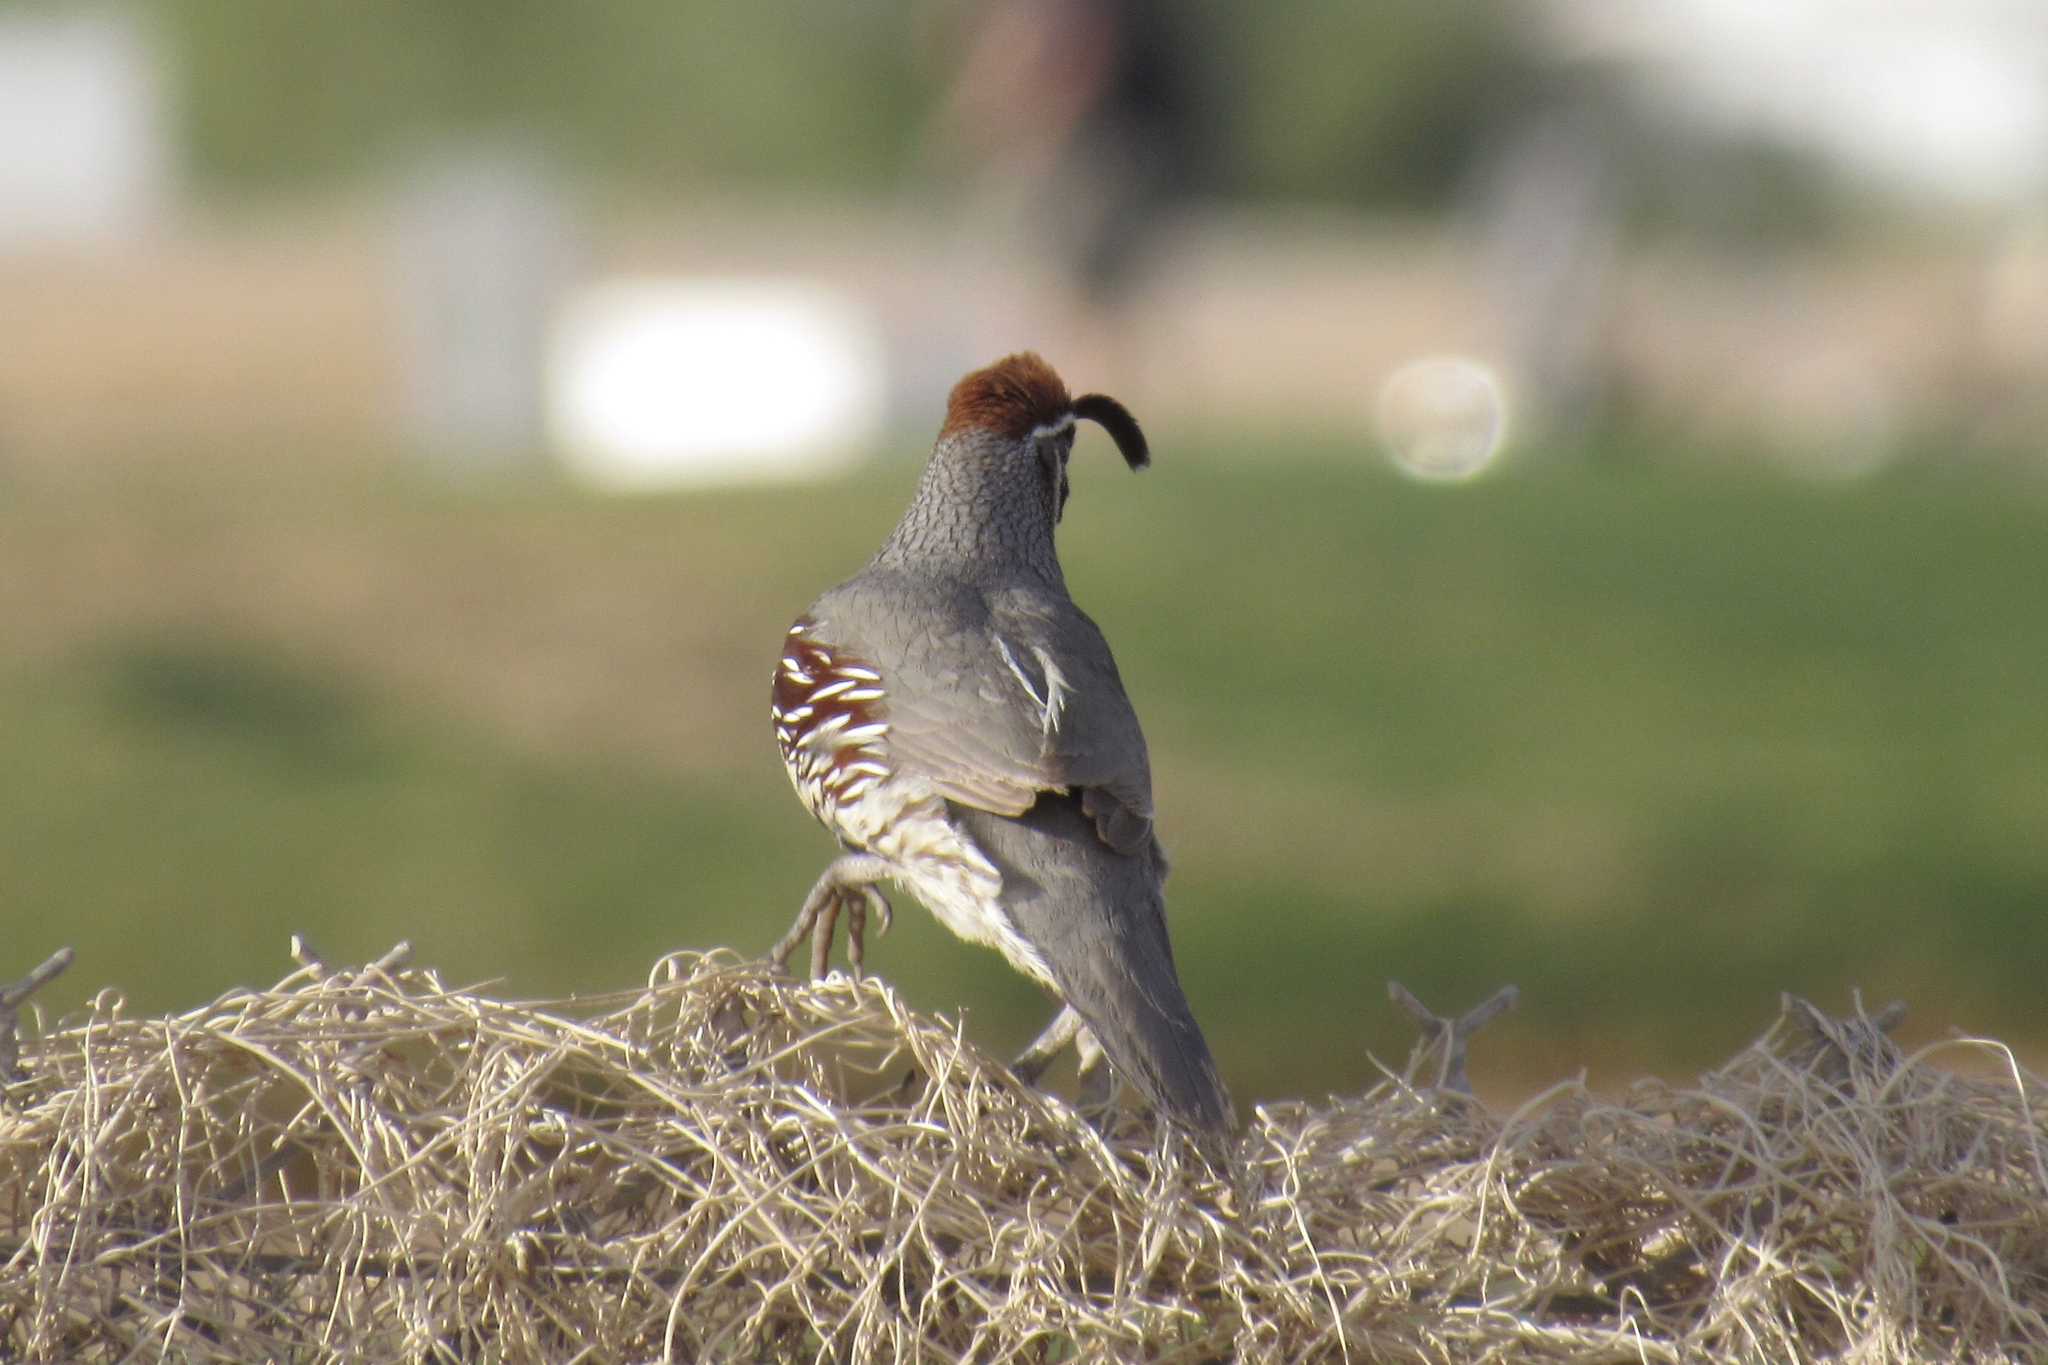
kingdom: Animalia
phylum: Chordata
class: Aves
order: Galliformes
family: Odontophoridae
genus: Callipepla
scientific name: Callipepla gambelii
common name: Gambel's quail
